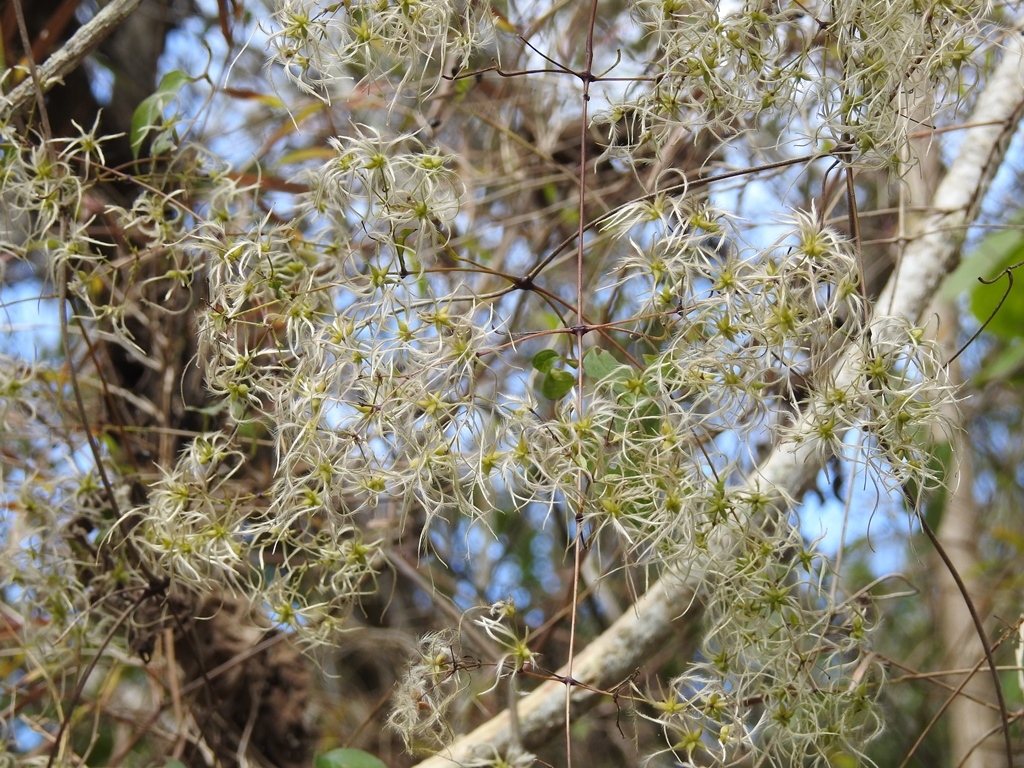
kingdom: Plantae
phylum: Tracheophyta
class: Magnoliopsida
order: Ranunculales
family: Ranunculaceae
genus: Clematis
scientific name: Clematis dioica
